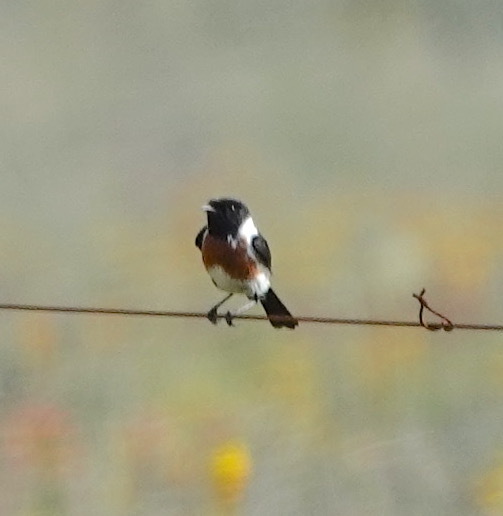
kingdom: Animalia
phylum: Chordata
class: Aves
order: Passeriformes
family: Muscicapidae
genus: Saxicola
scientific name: Saxicola torquatus
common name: African stonechat
